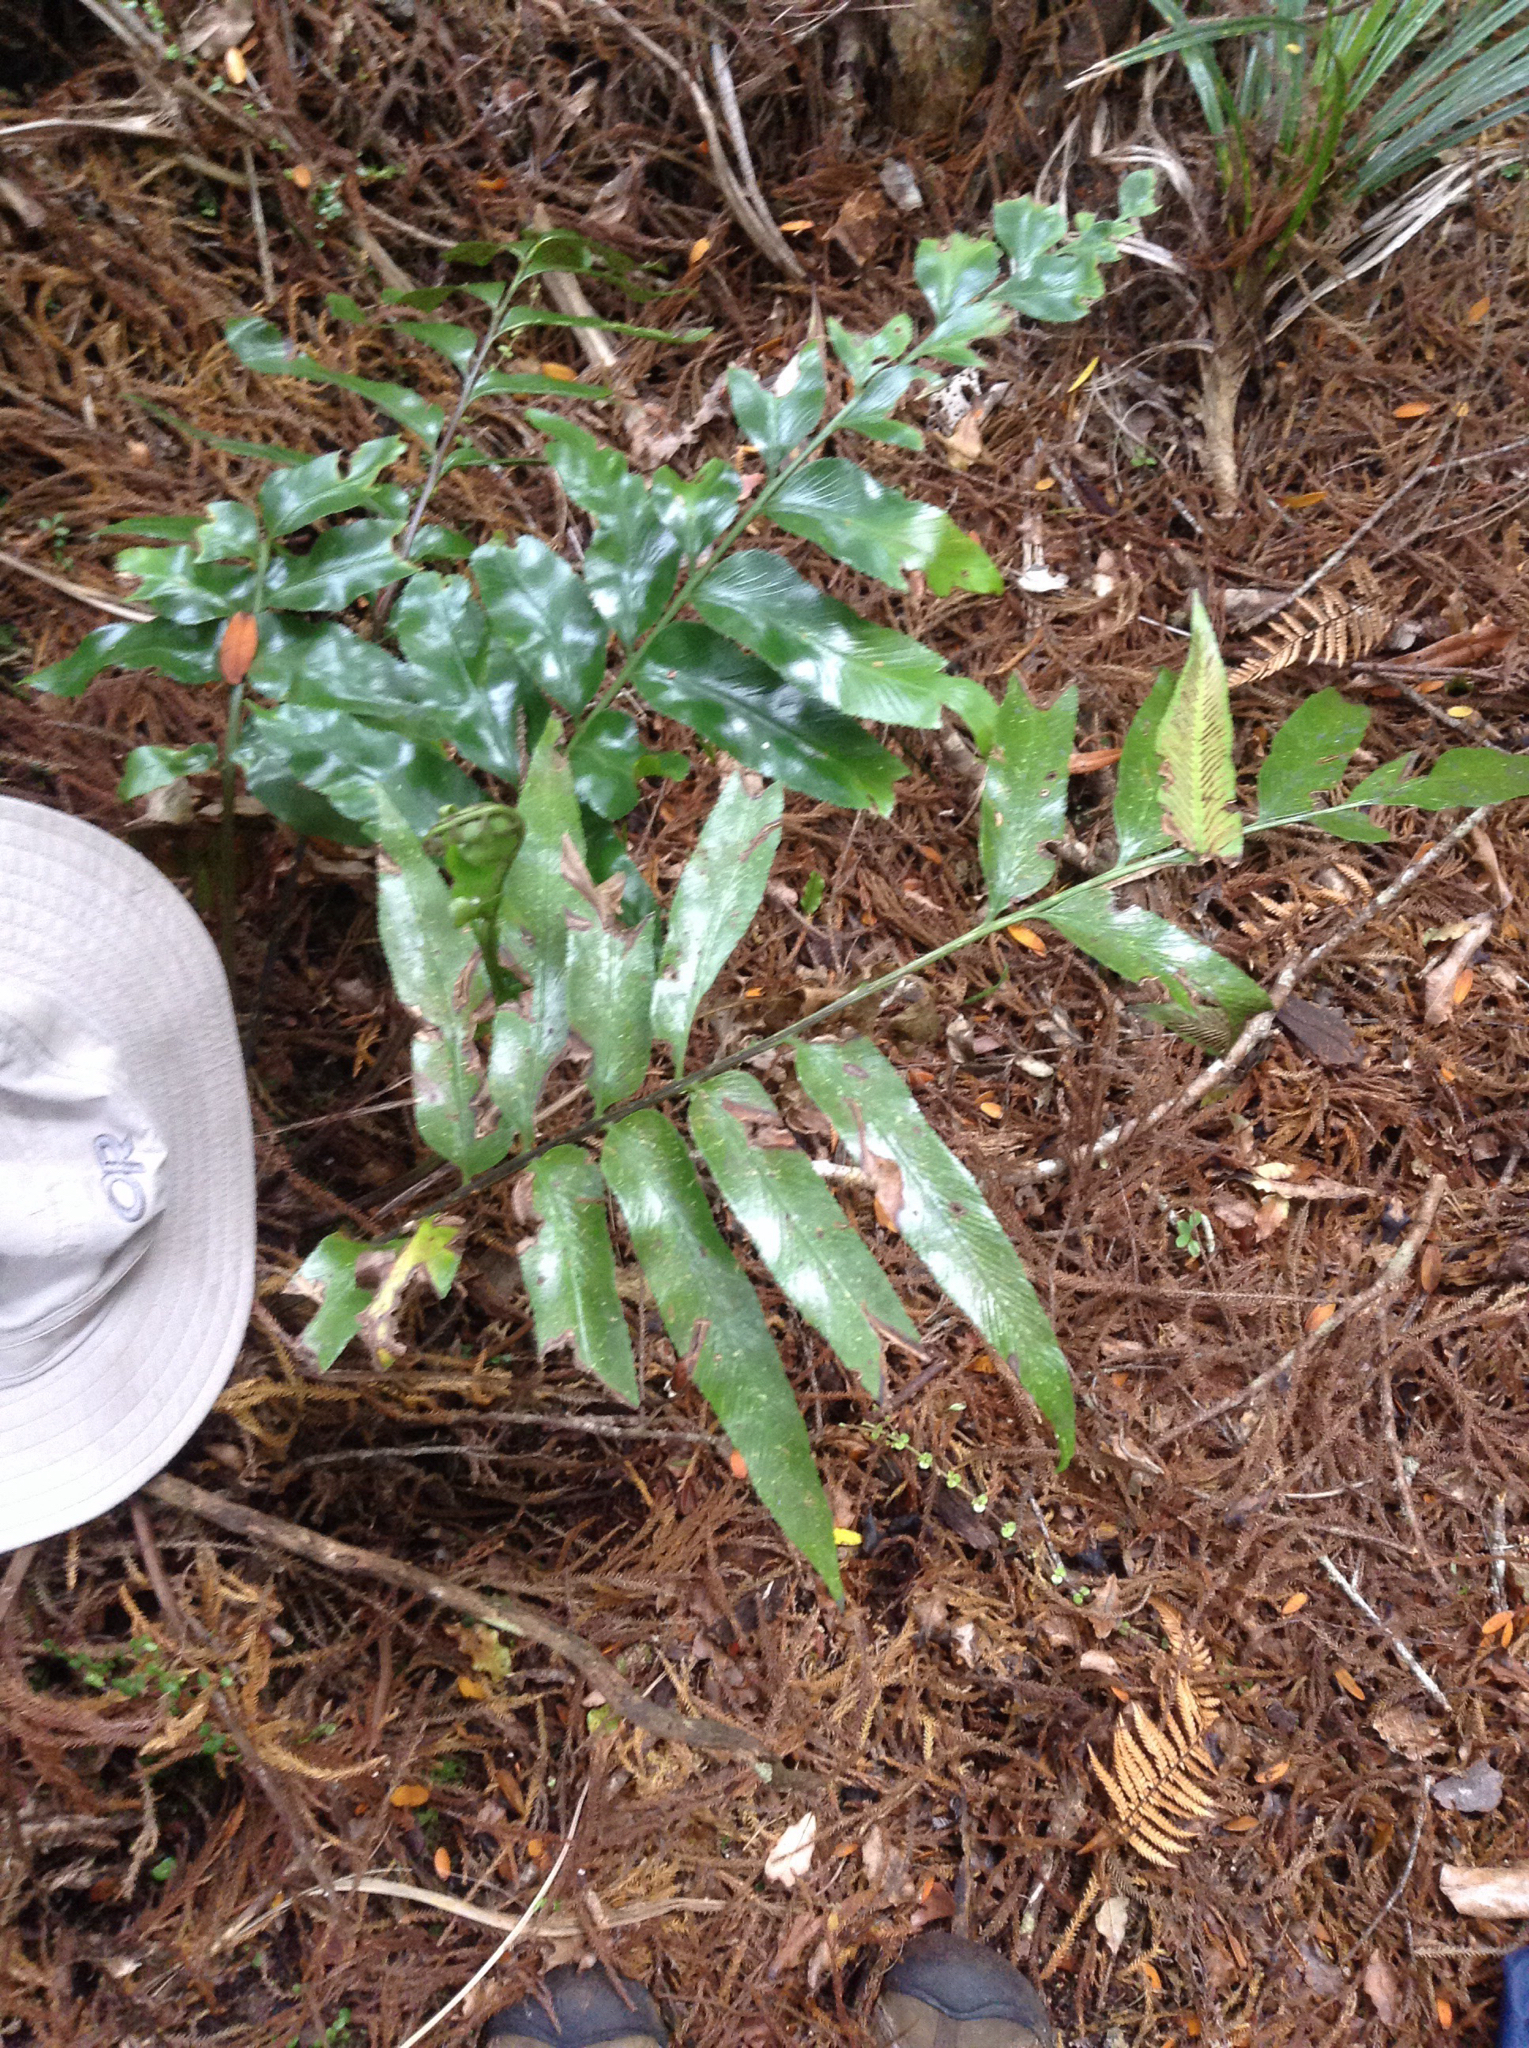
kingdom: Plantae
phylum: Tracheophyta
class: Polypodiopsida
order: Polypodiales
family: Aspleniaceae
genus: Asplenium
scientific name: Asplenium oblongifolium
